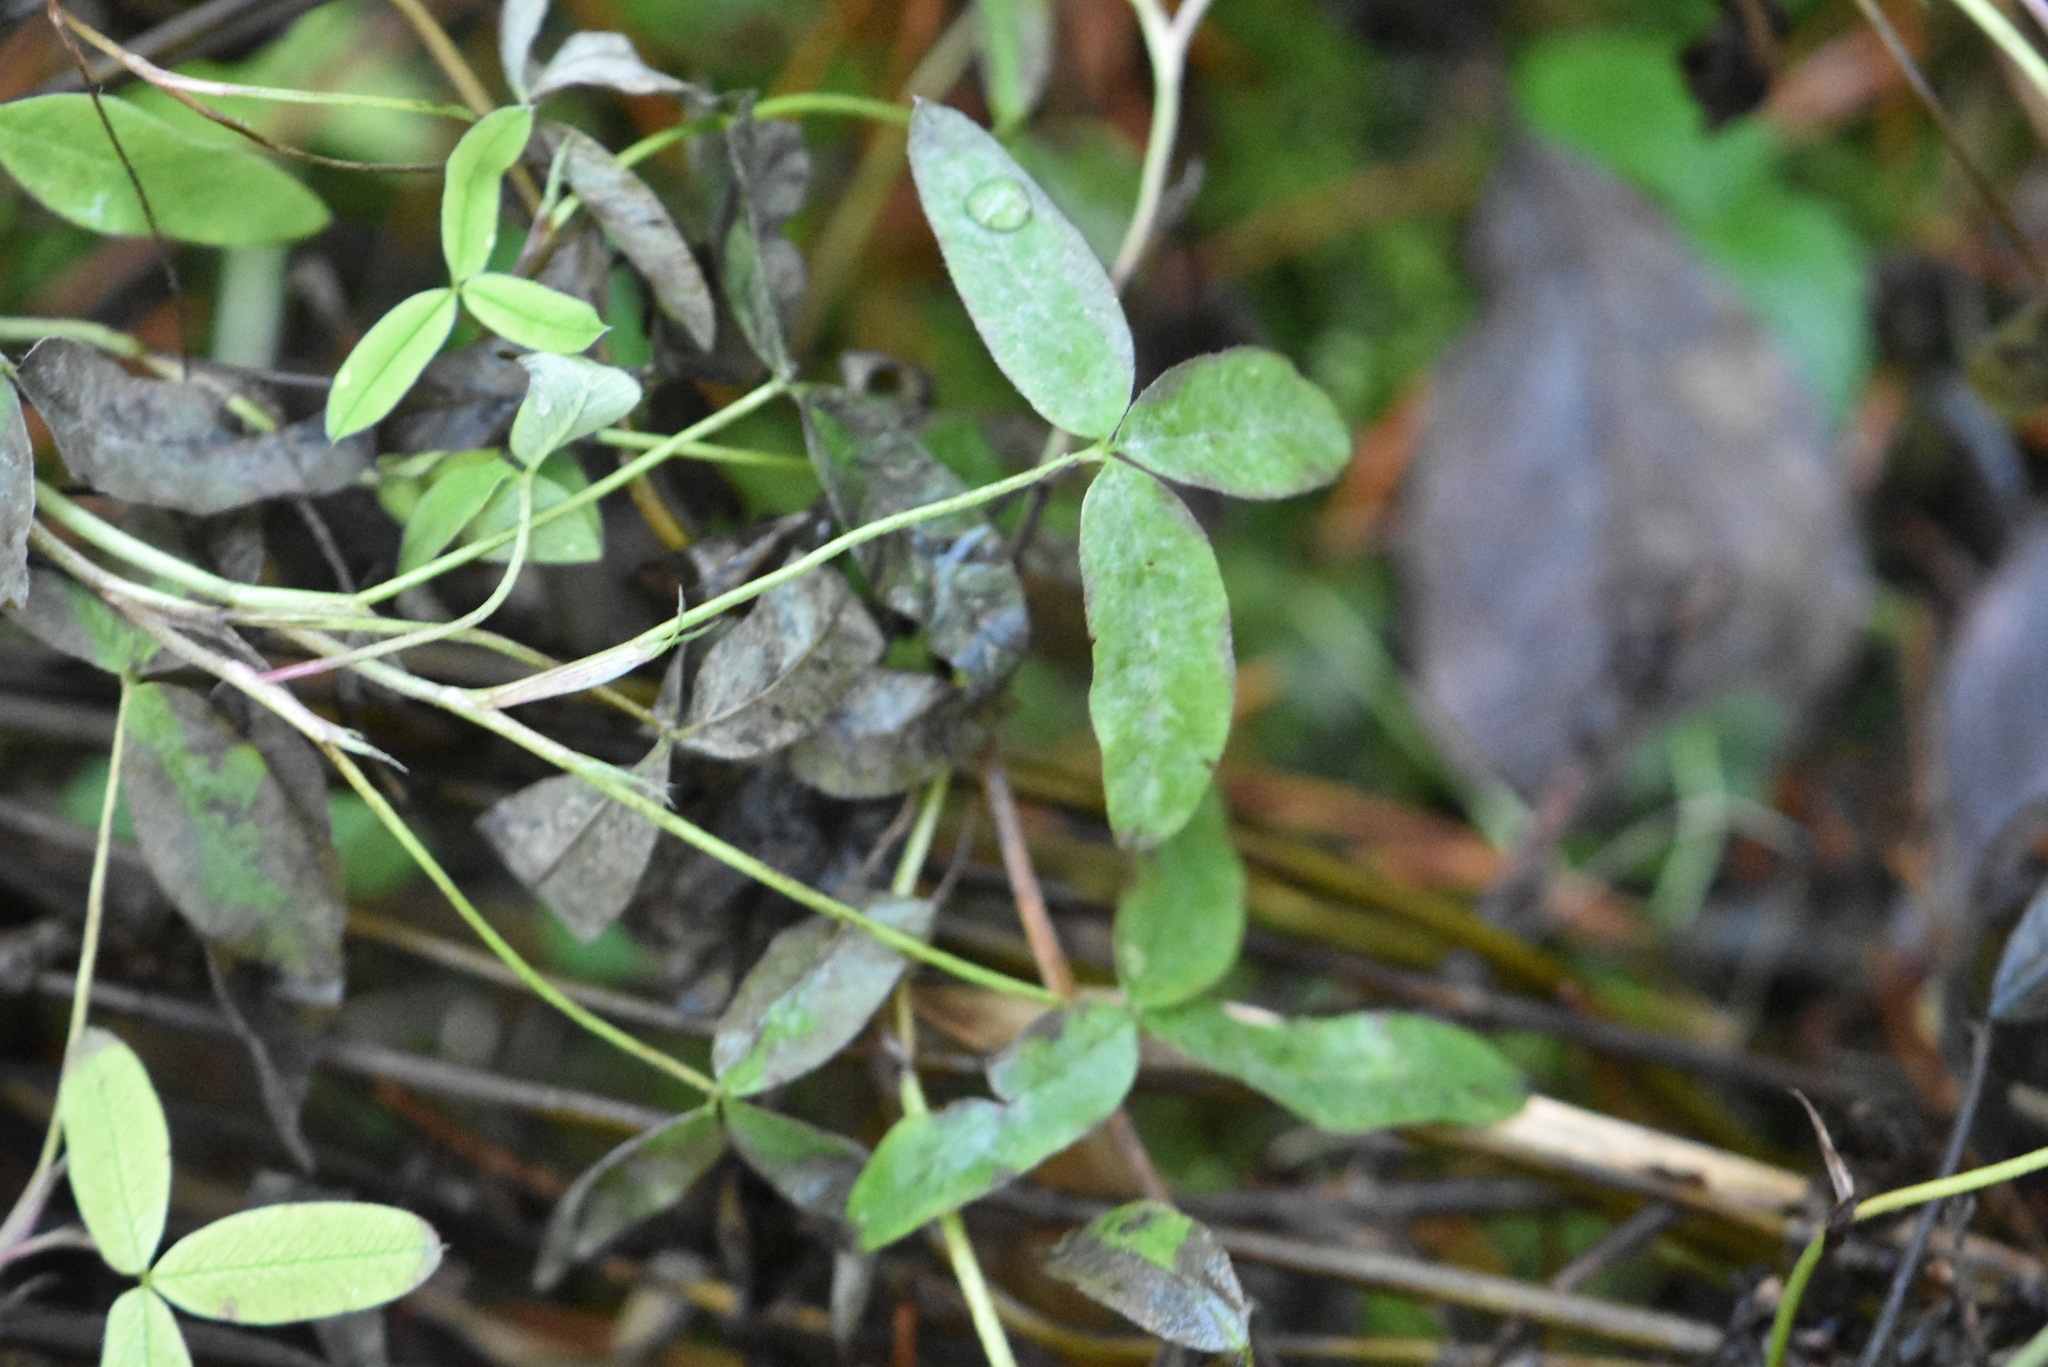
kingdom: Plantae
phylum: Tracheophyta
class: Magnoliopsida
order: Fabales
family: Fabaceae
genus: Trifolium
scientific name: Trifolium medium
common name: Zigzag clover
